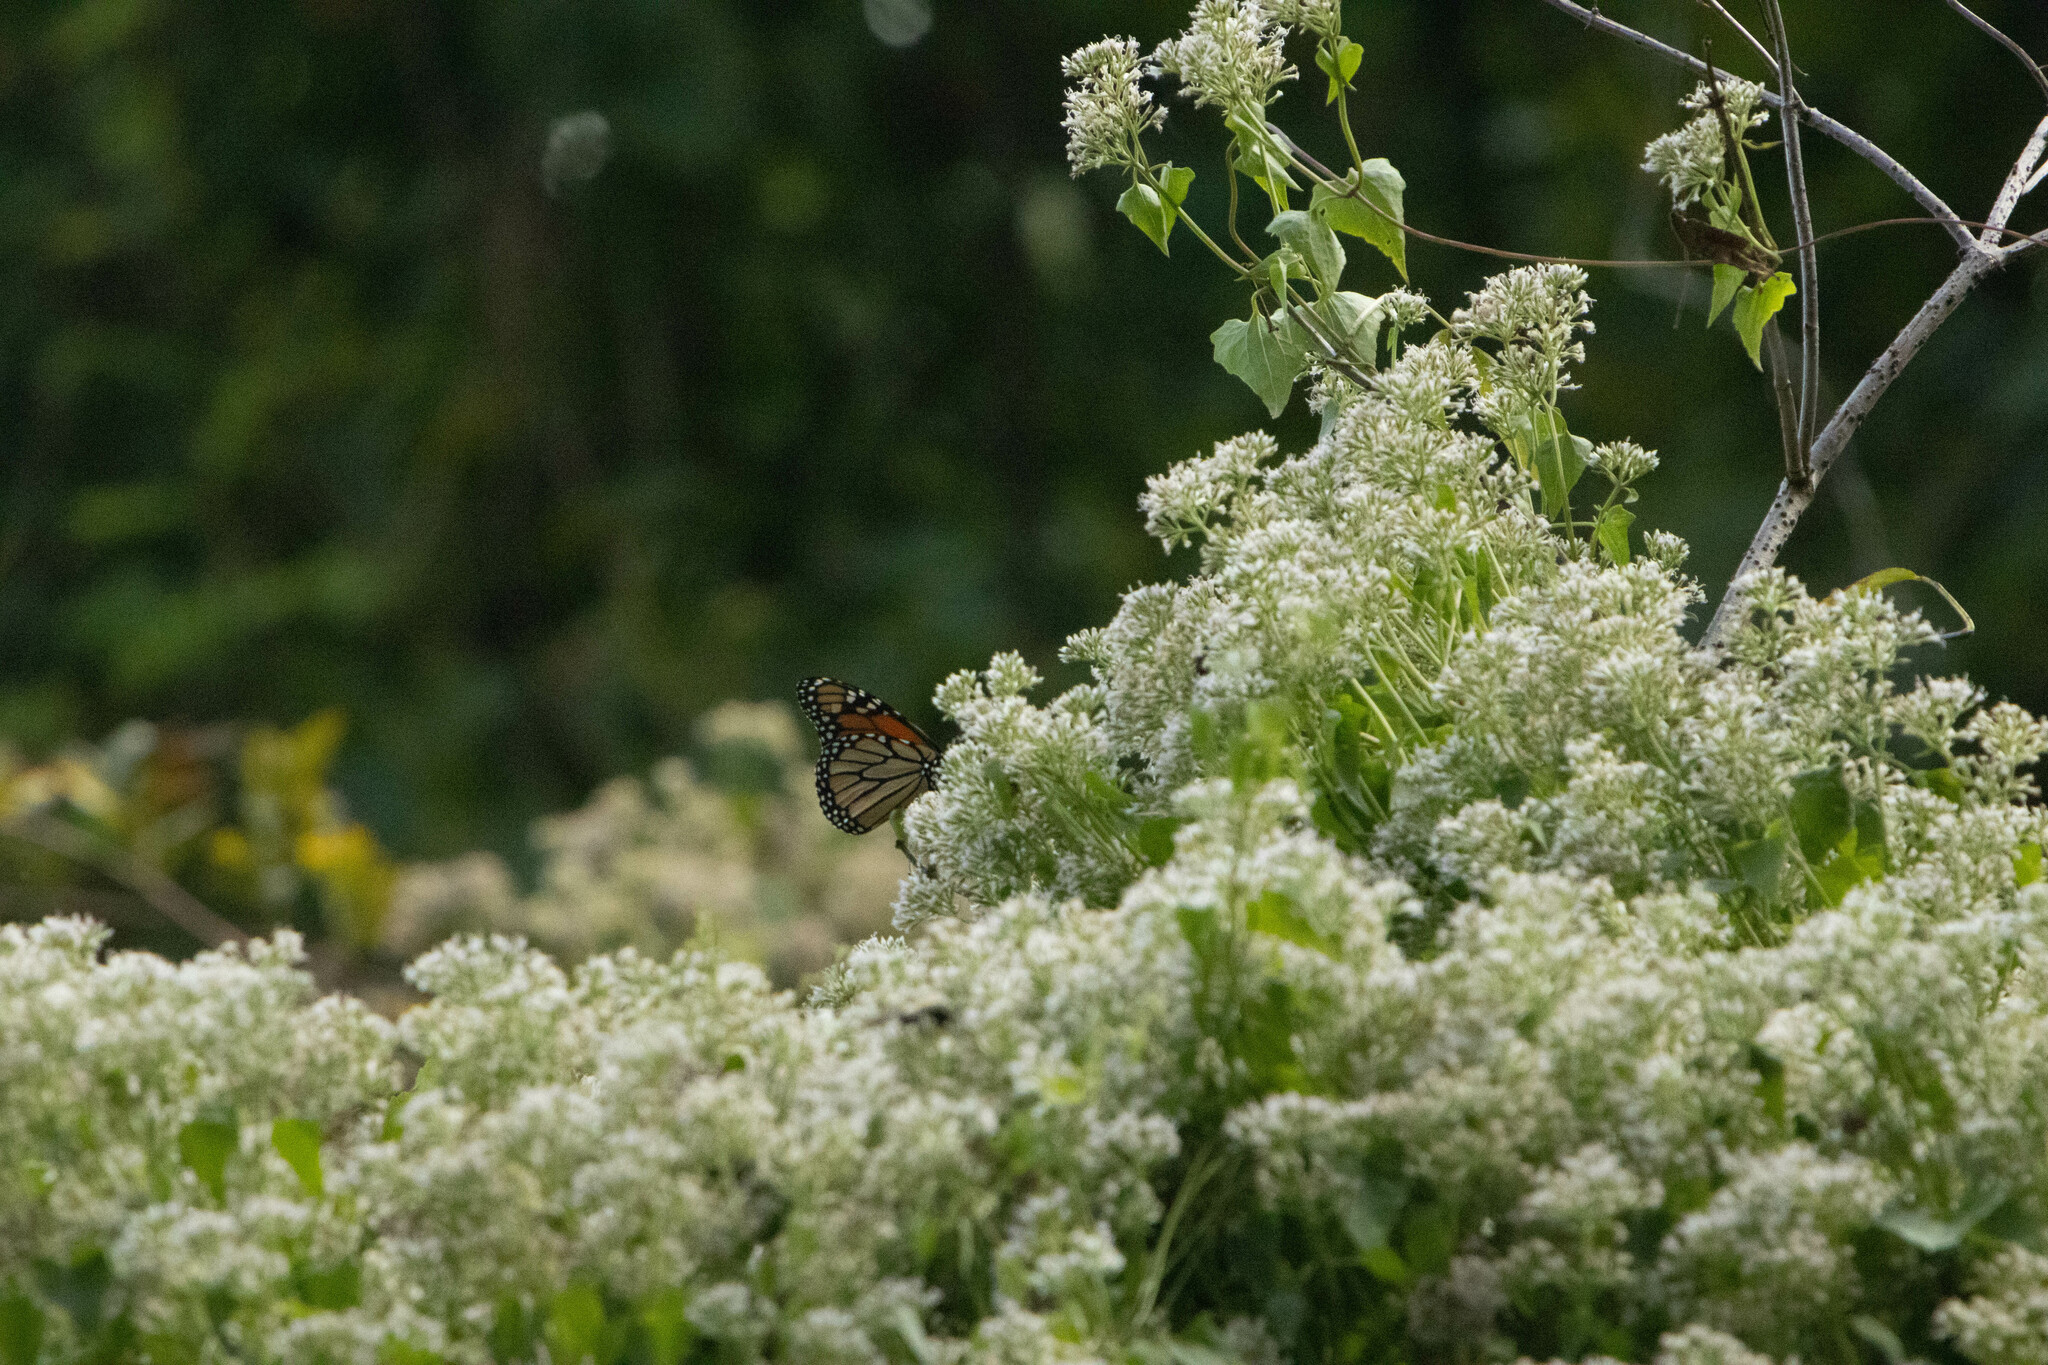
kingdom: Animalia
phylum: Arthropoda
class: Insecta
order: Lepidoptera
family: Nymphalidae
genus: Danaus
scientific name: Danaus plexippus
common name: Monarch
